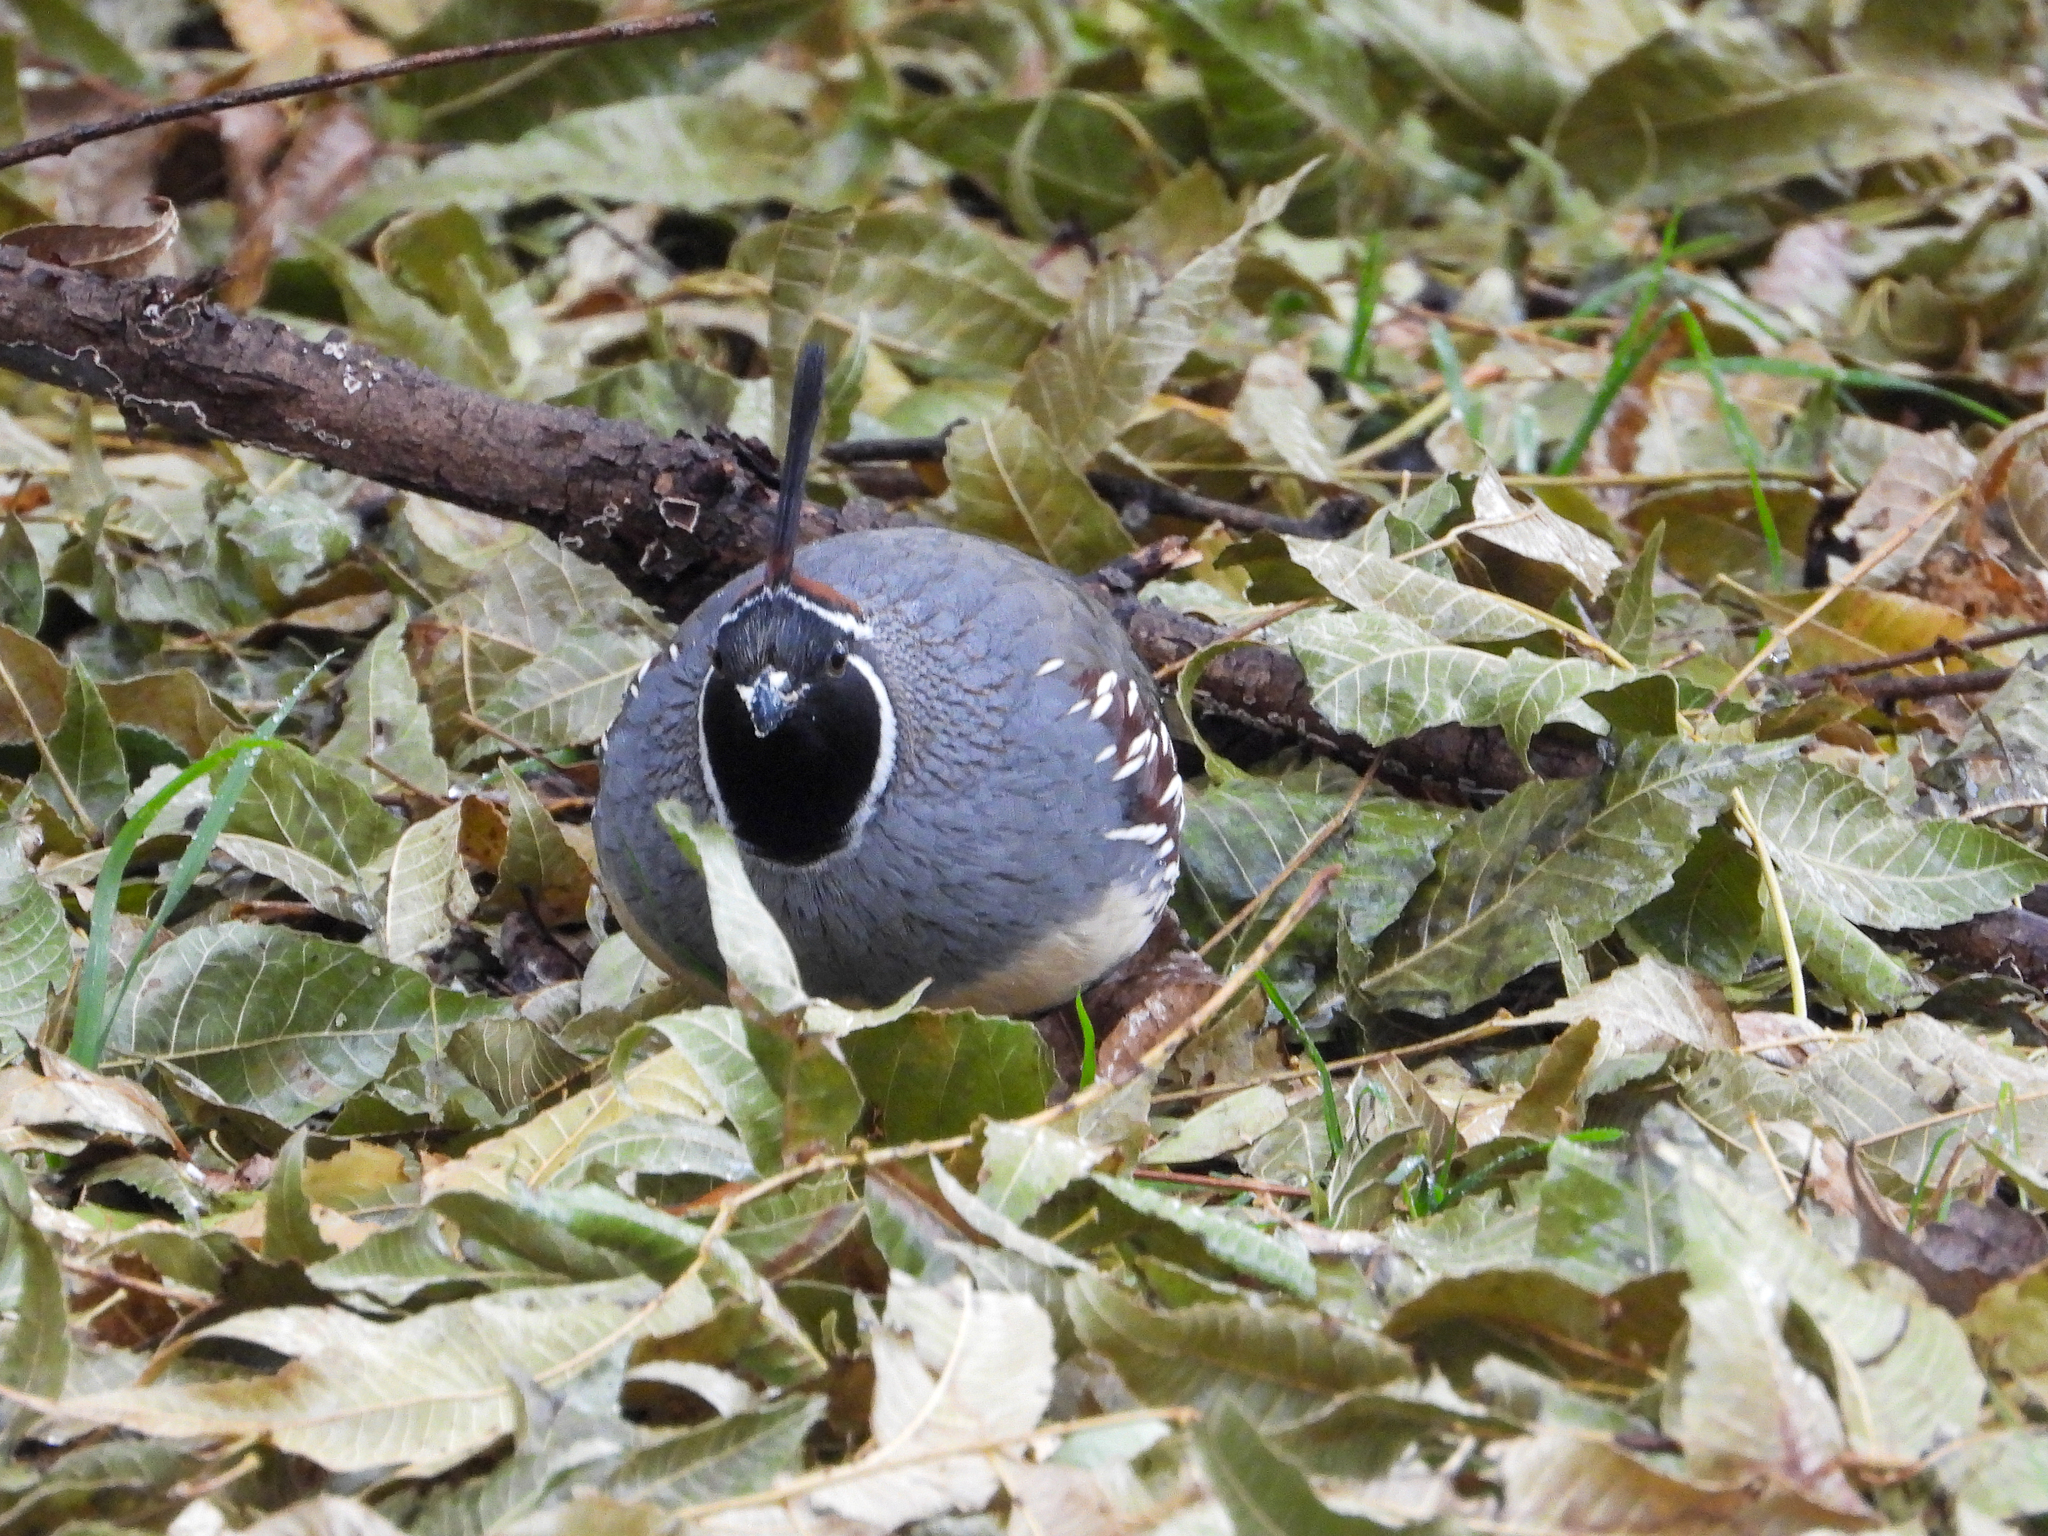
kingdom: Animalia
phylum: Chordata
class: Aves
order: Galliformes
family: Odontophoridae
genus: Callipepla
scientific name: Callipepla gambelii
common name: Gambel's quail
